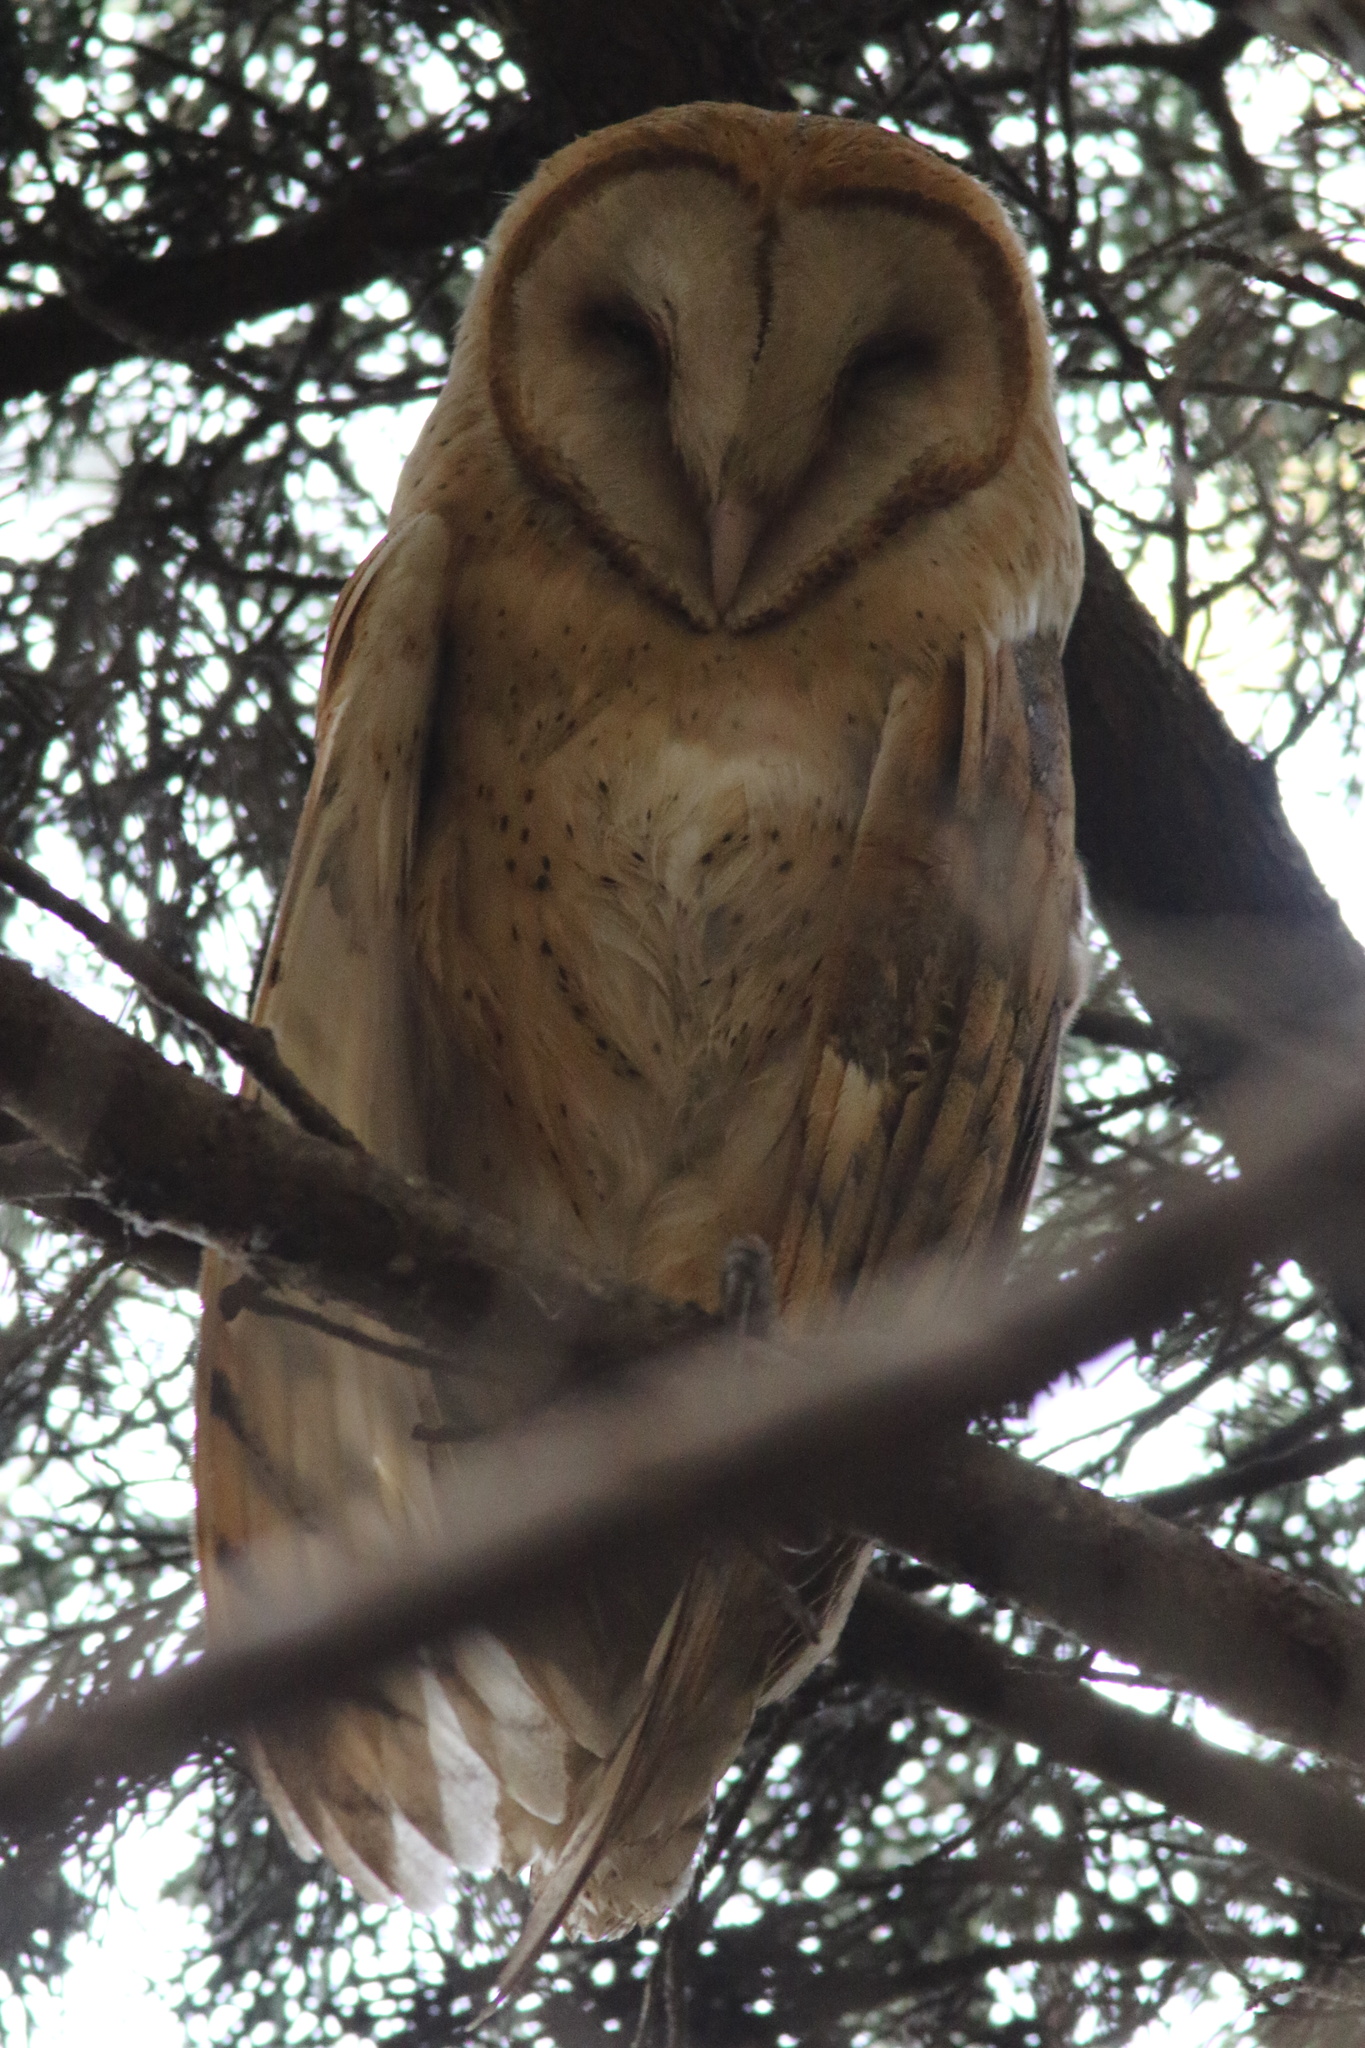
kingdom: Animalia
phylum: Chordata
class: Aves
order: Strigiformes
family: Tytonidae
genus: Tyto
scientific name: Tyto alba
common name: Barn owl
